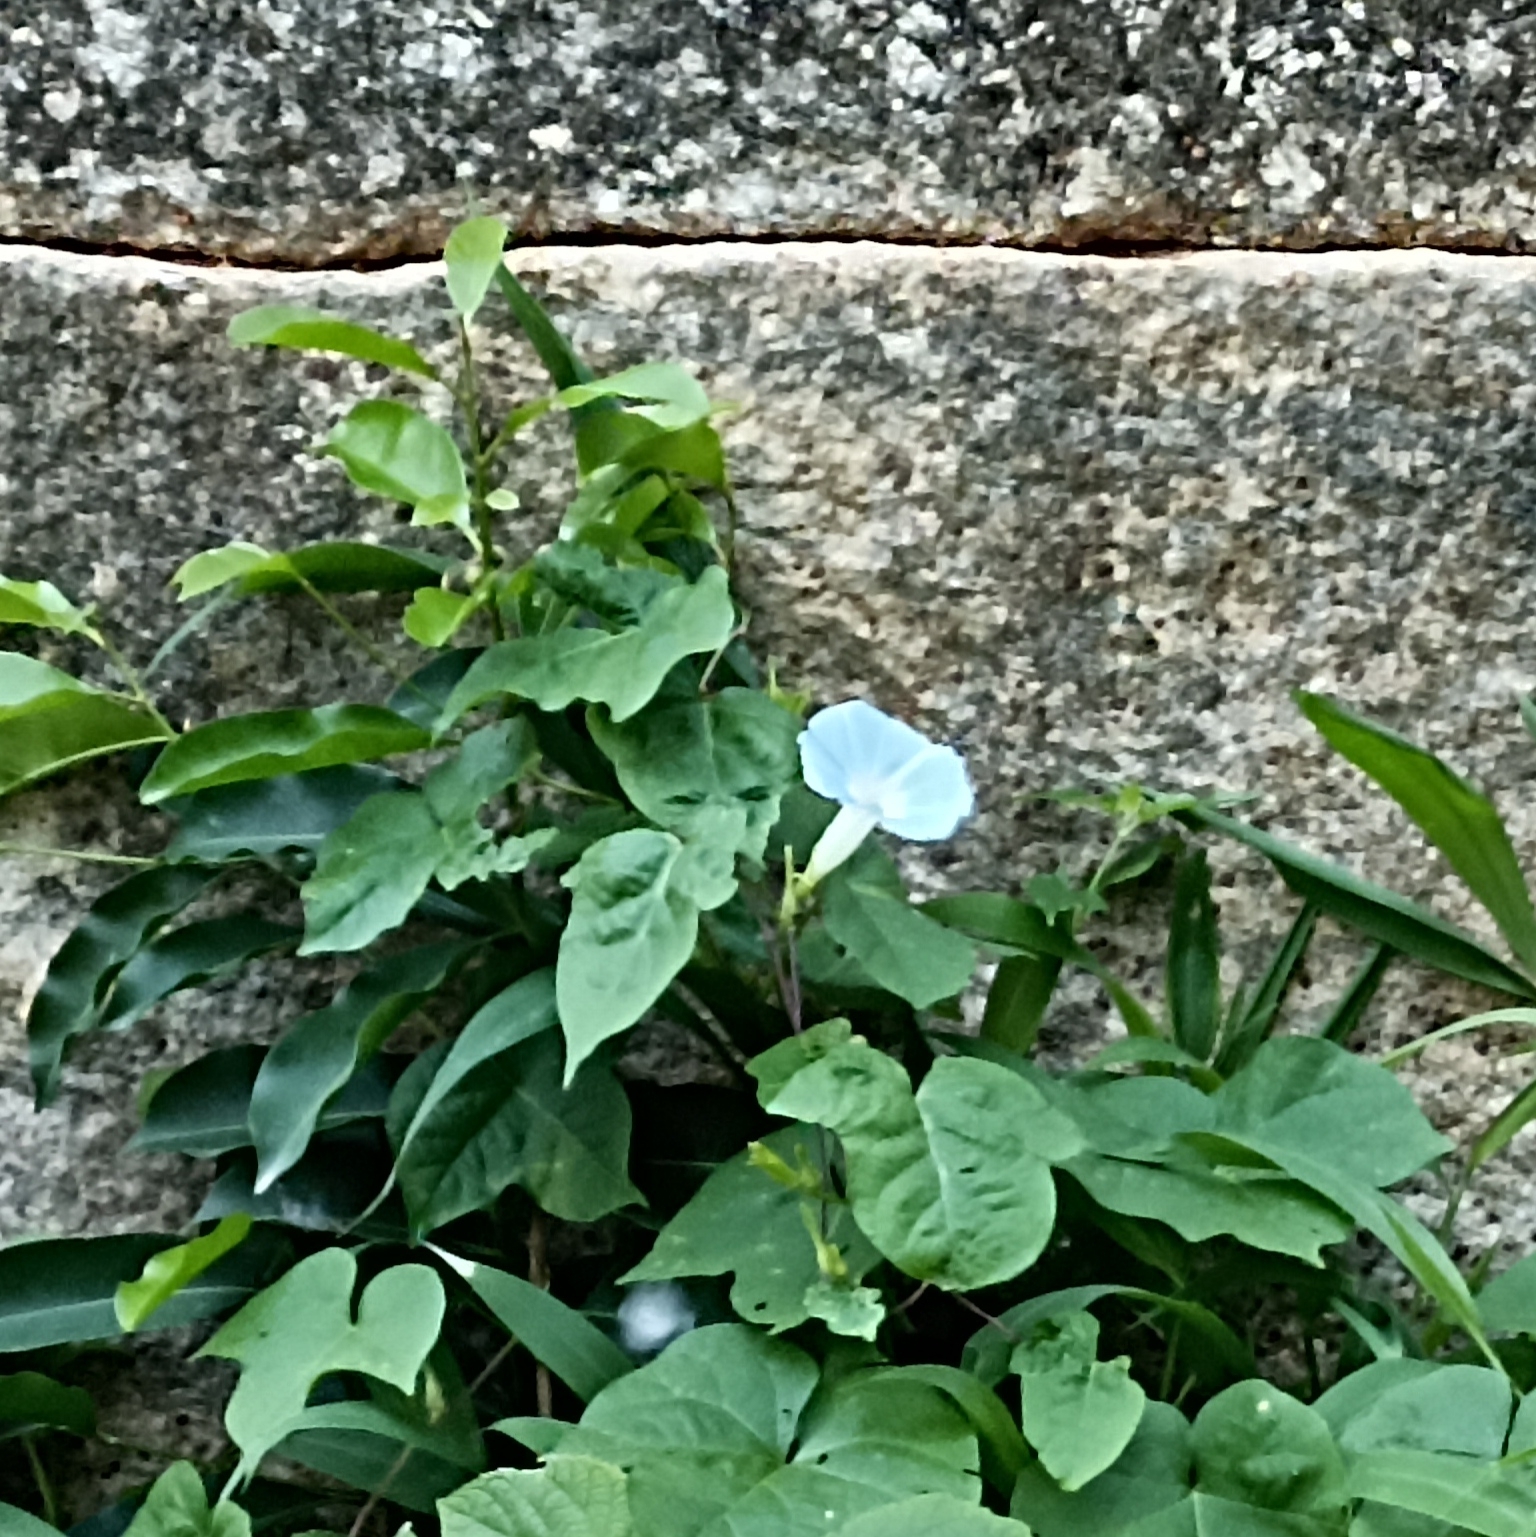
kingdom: Plantae
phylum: Tracheophyta
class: Magnoliopsida
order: Solanales
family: Convolvulaceae
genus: Ipomoea
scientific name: Ipomoea indica
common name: Blue dawnflower
